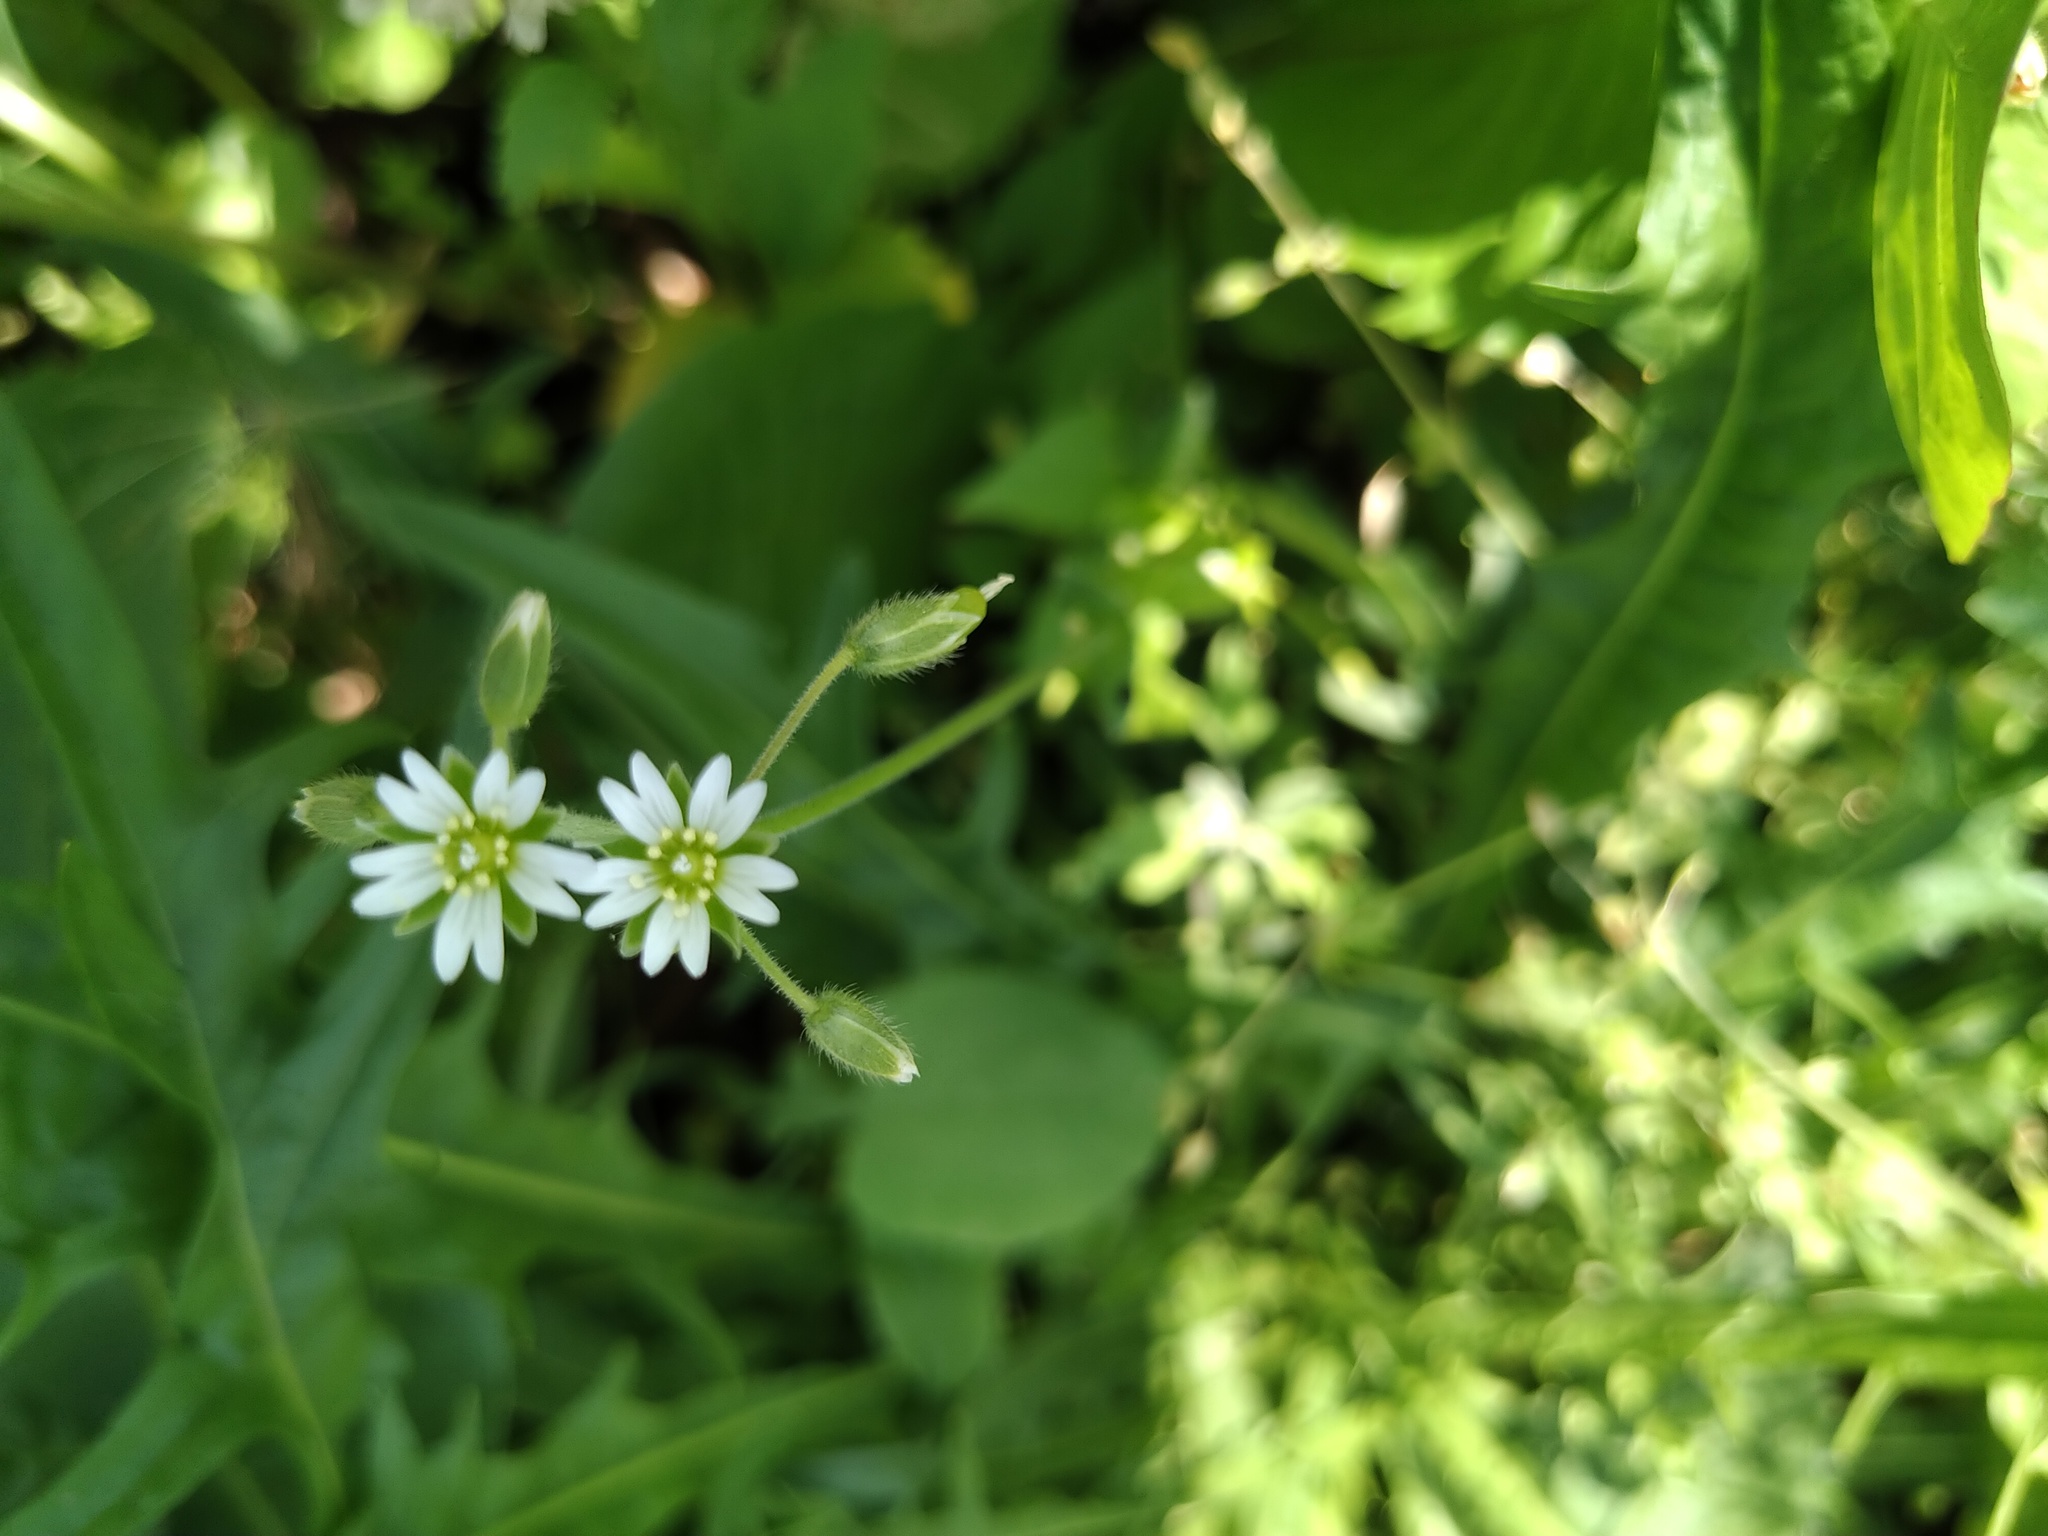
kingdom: Plantae
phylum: Tracheophyta
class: Magnoliopsida
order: Caryophyllales
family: Caryophyllaceae
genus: Cerastium
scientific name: Cerastium holosteoides
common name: Big chickweed
